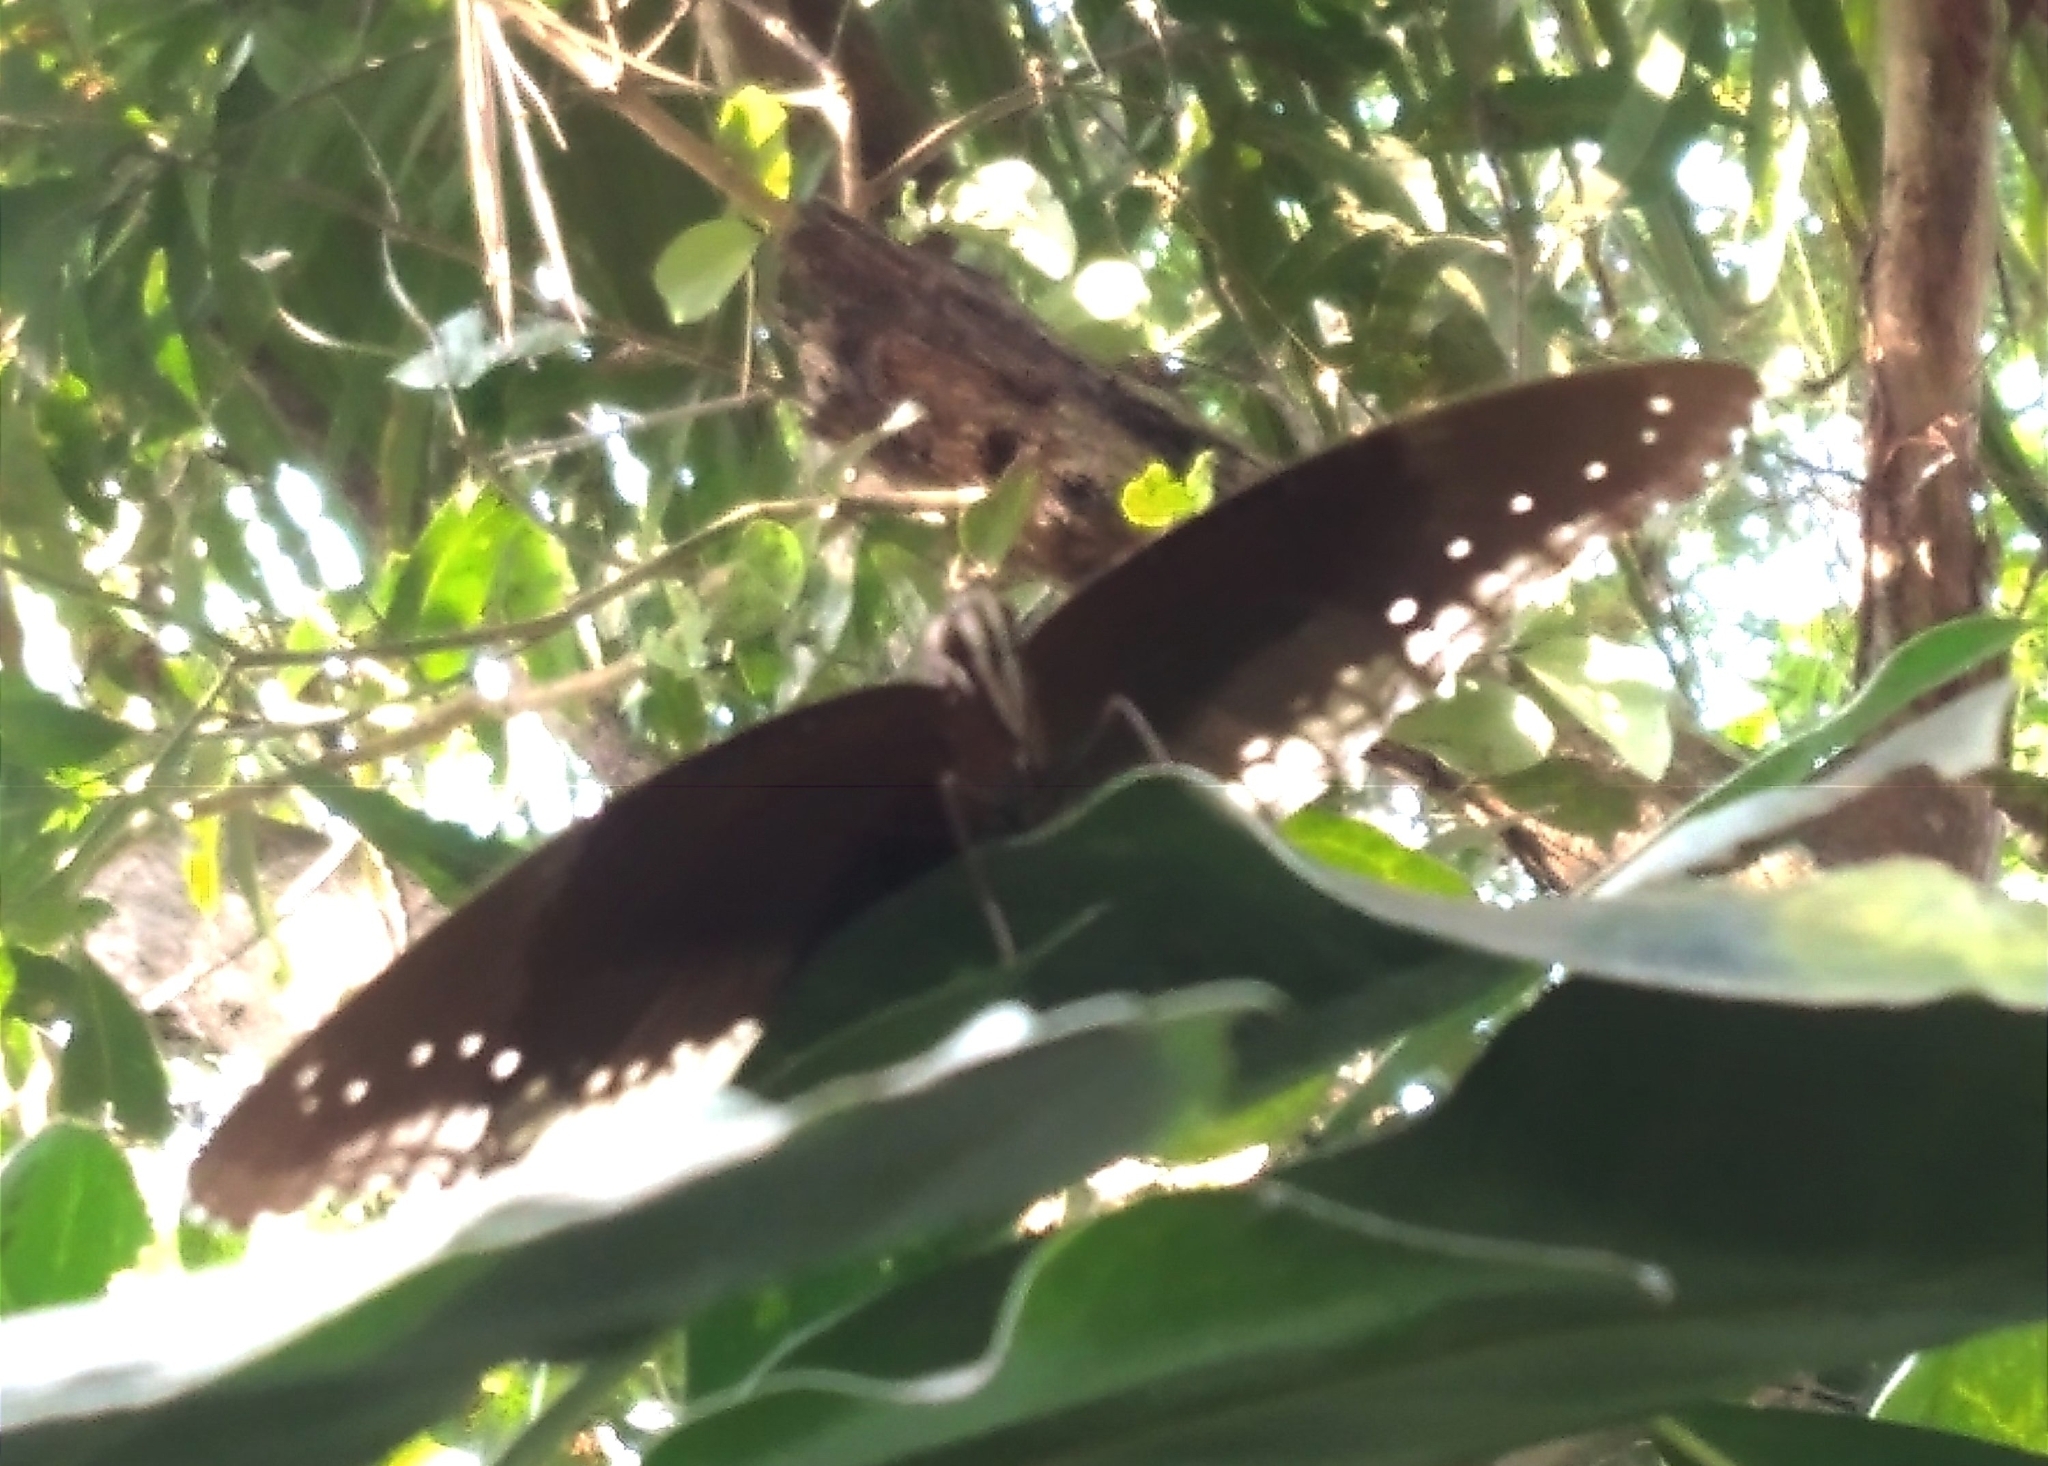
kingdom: Animalia
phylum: Arthropoda
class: Insecta
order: Lepidoptera
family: Nymphalidae
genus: Hypolimnas
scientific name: Hypolimnas bolina
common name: Great eggfly
